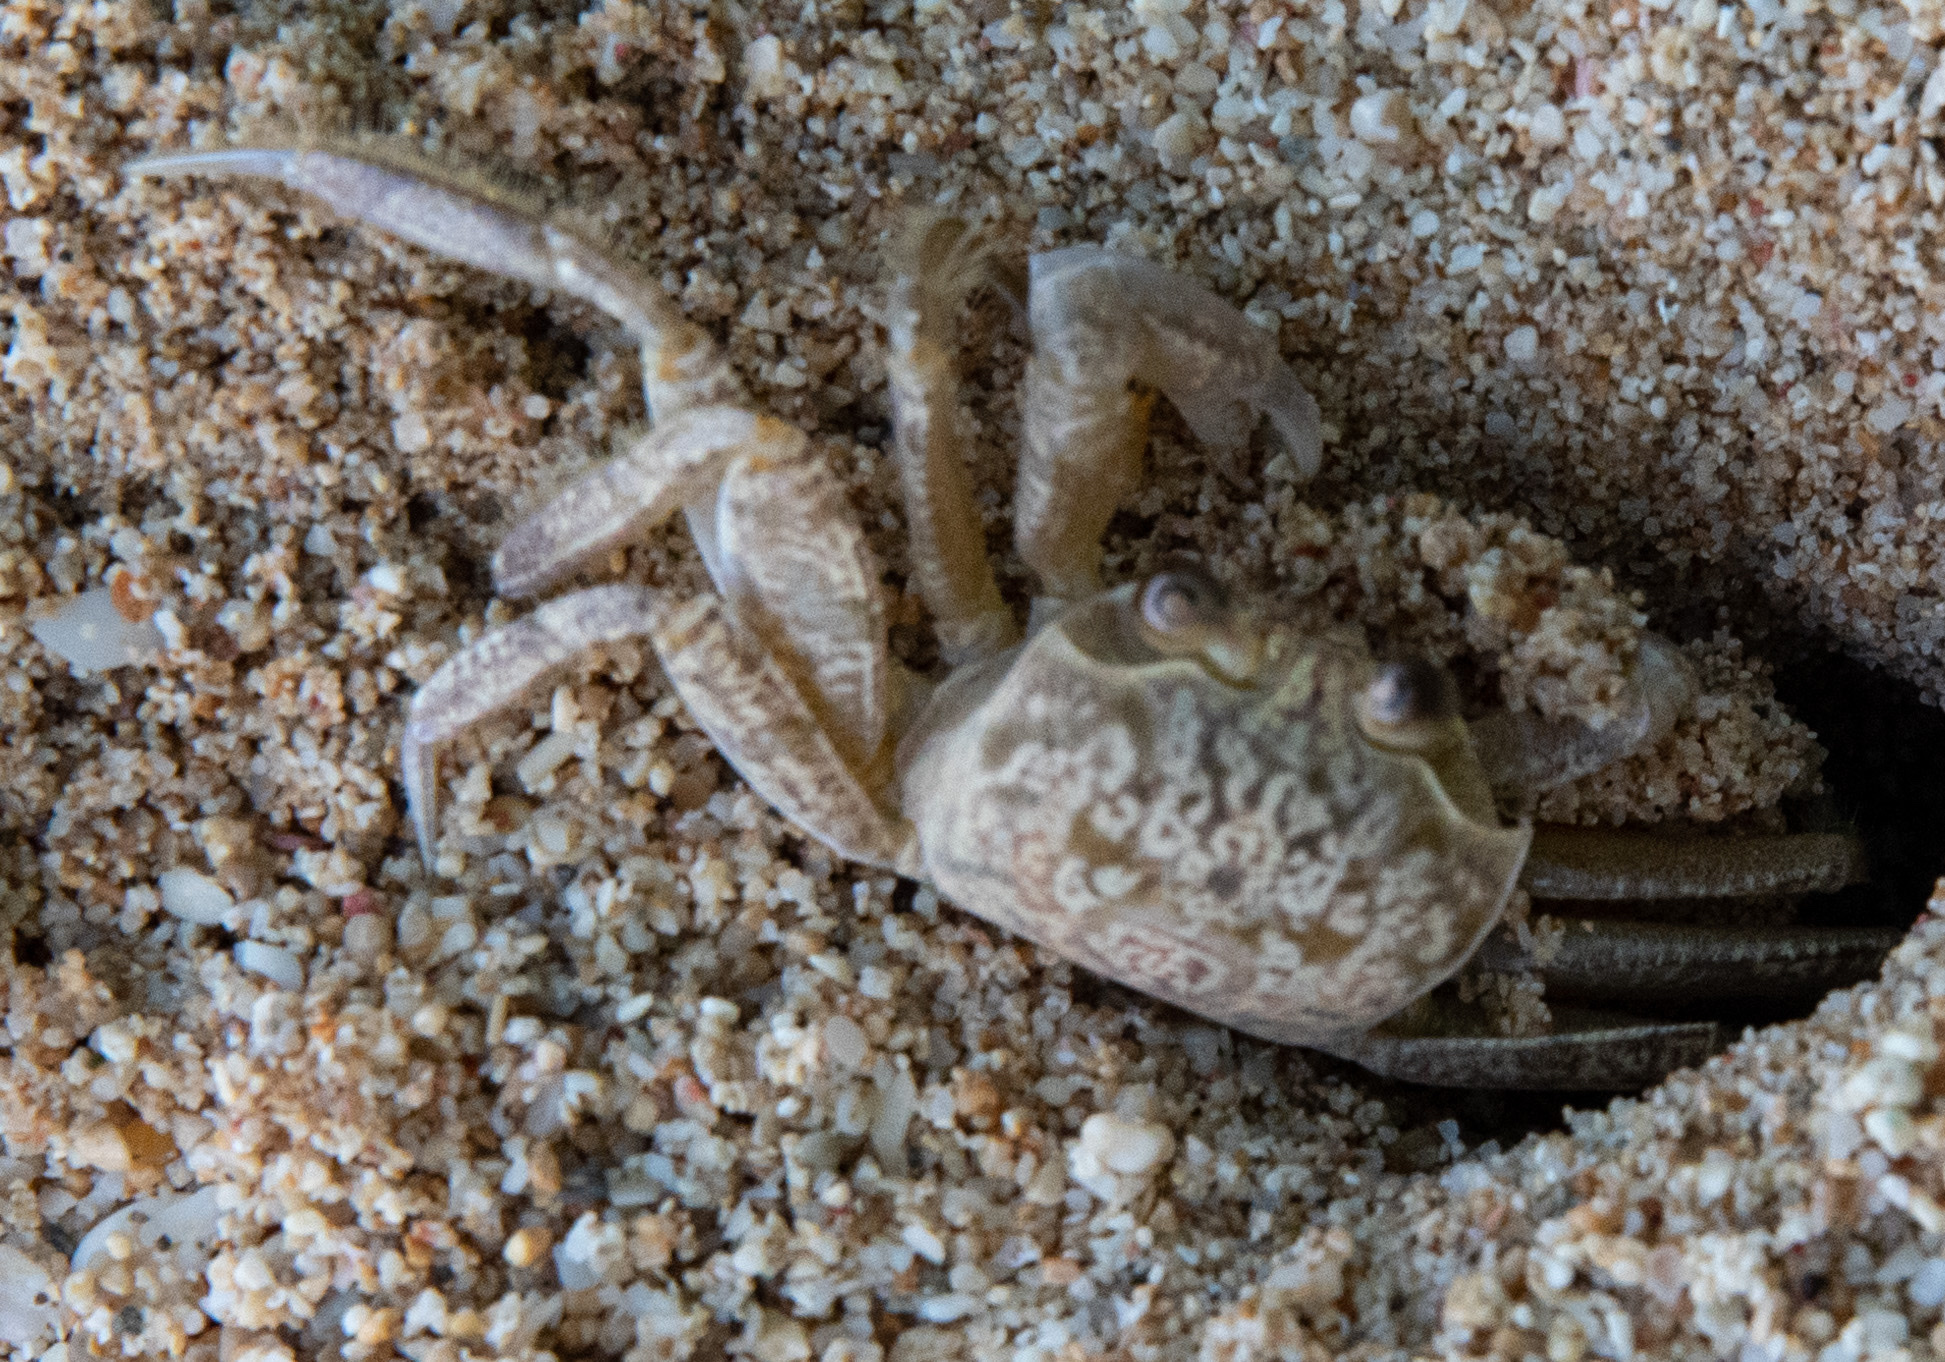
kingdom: Animalia
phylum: Arthropoda
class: Malacostraca
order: Decapoda
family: Ocypodidae
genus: Ocypode
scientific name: Ocypode quadrata
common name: Ghost crab
